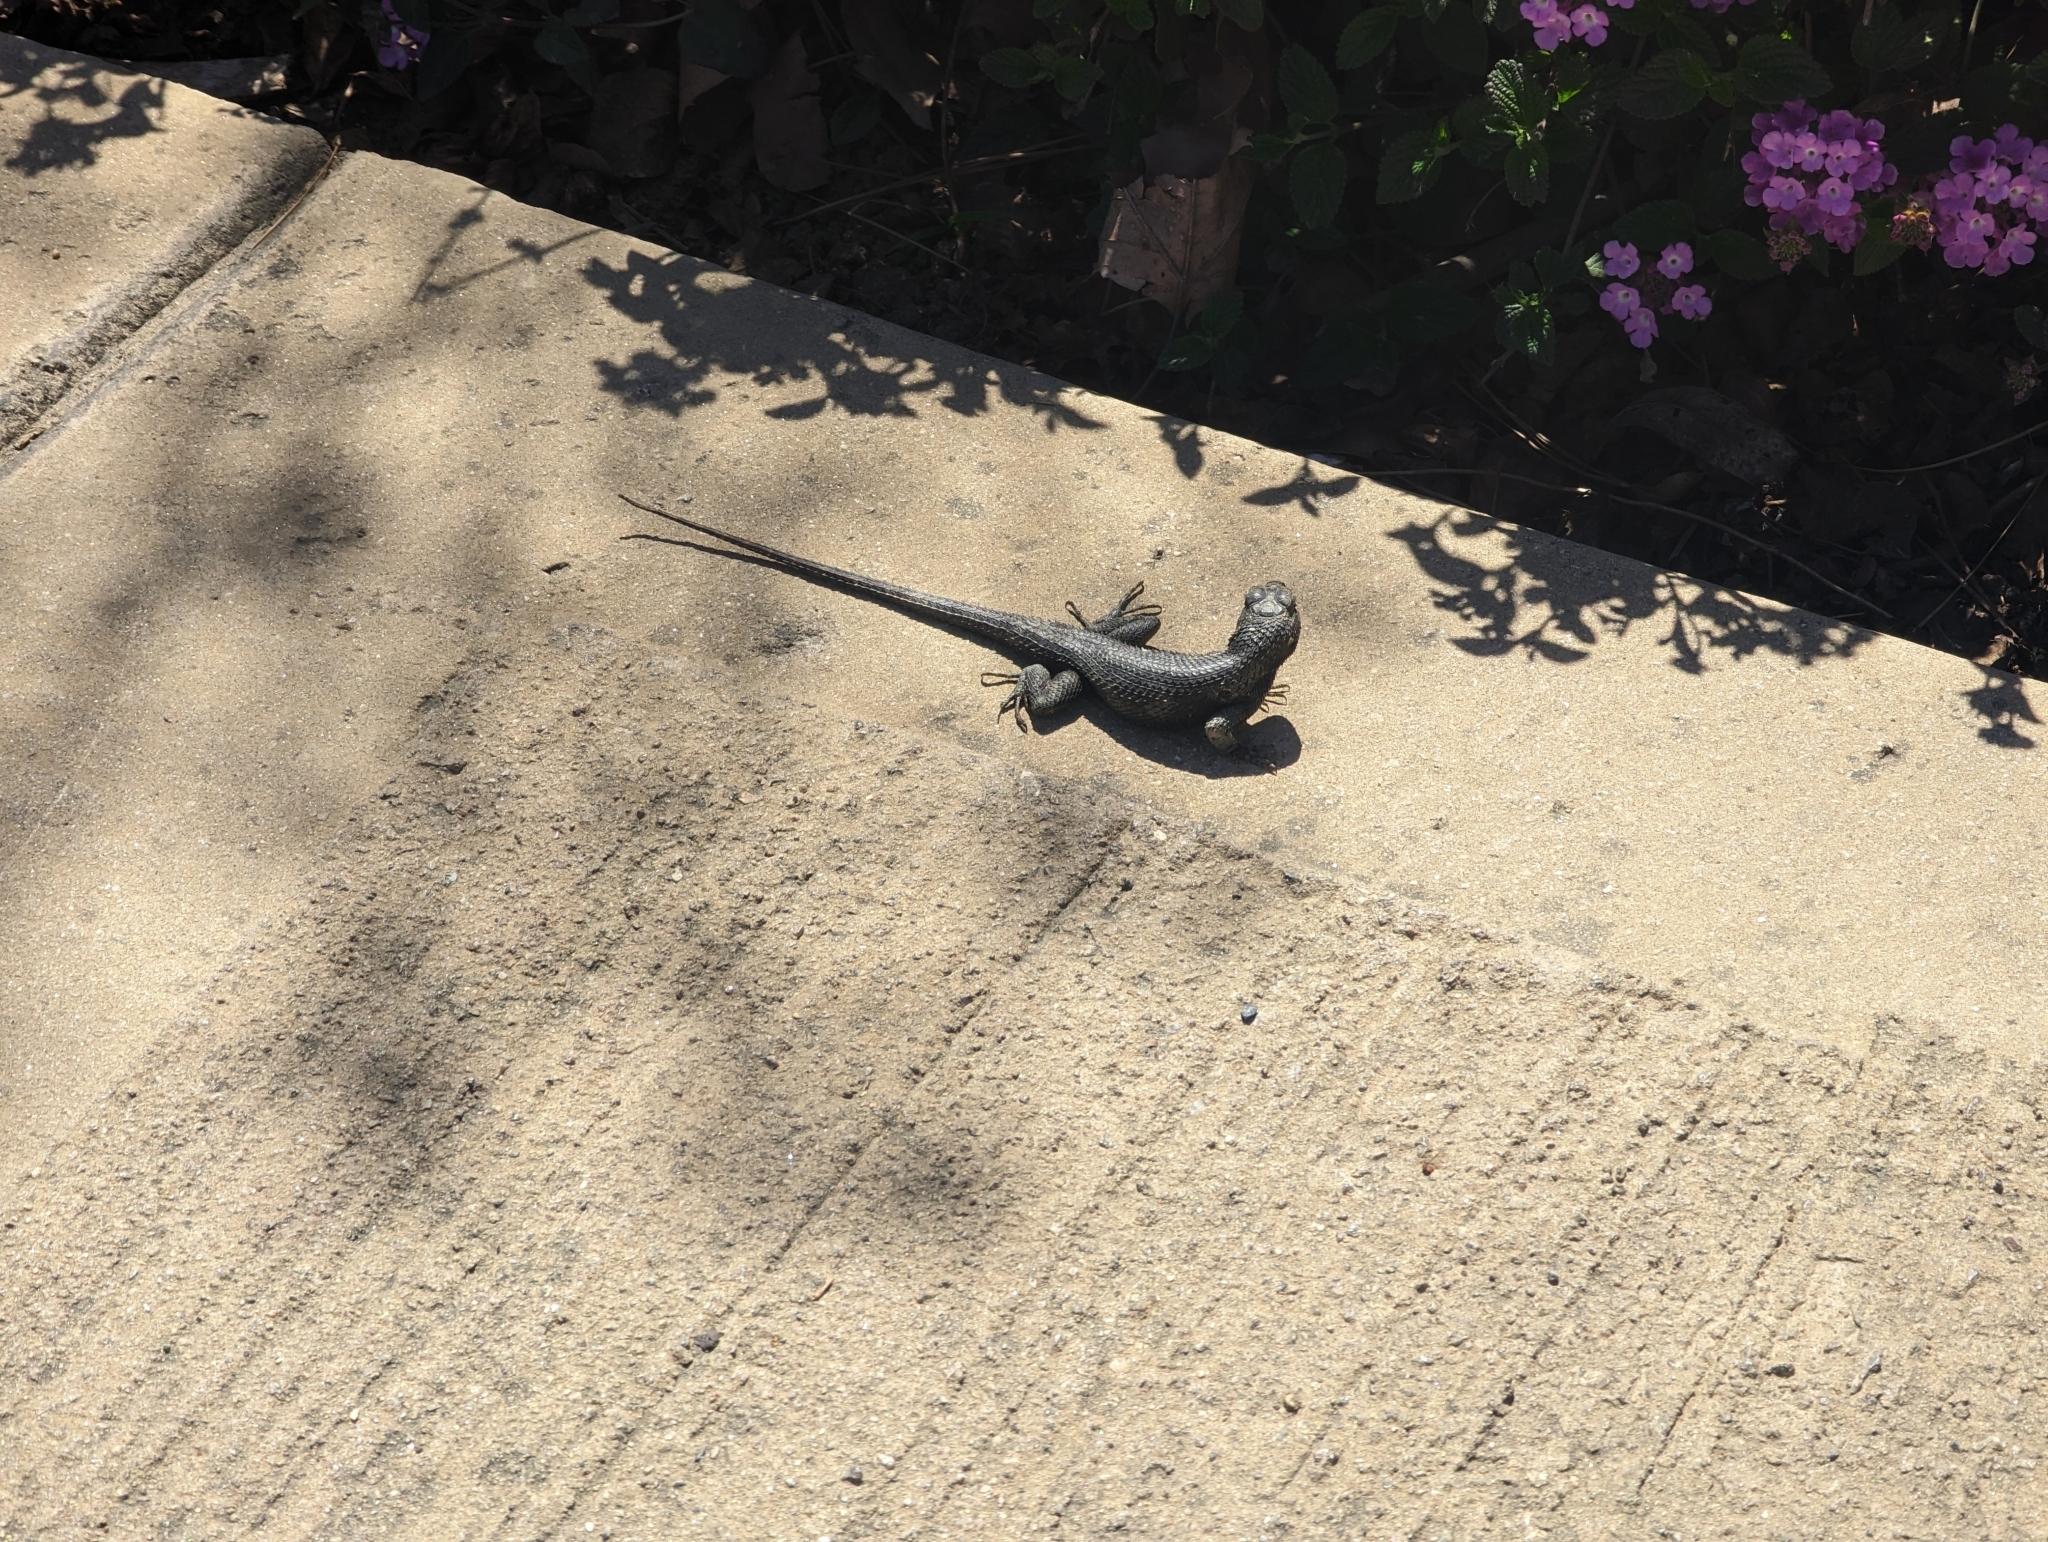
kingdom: Animalia
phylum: Chordata
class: Squamata
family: Phrynosomatidae
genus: Sceloporus
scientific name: Sceloporus occidentalis
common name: Western fence lizard
